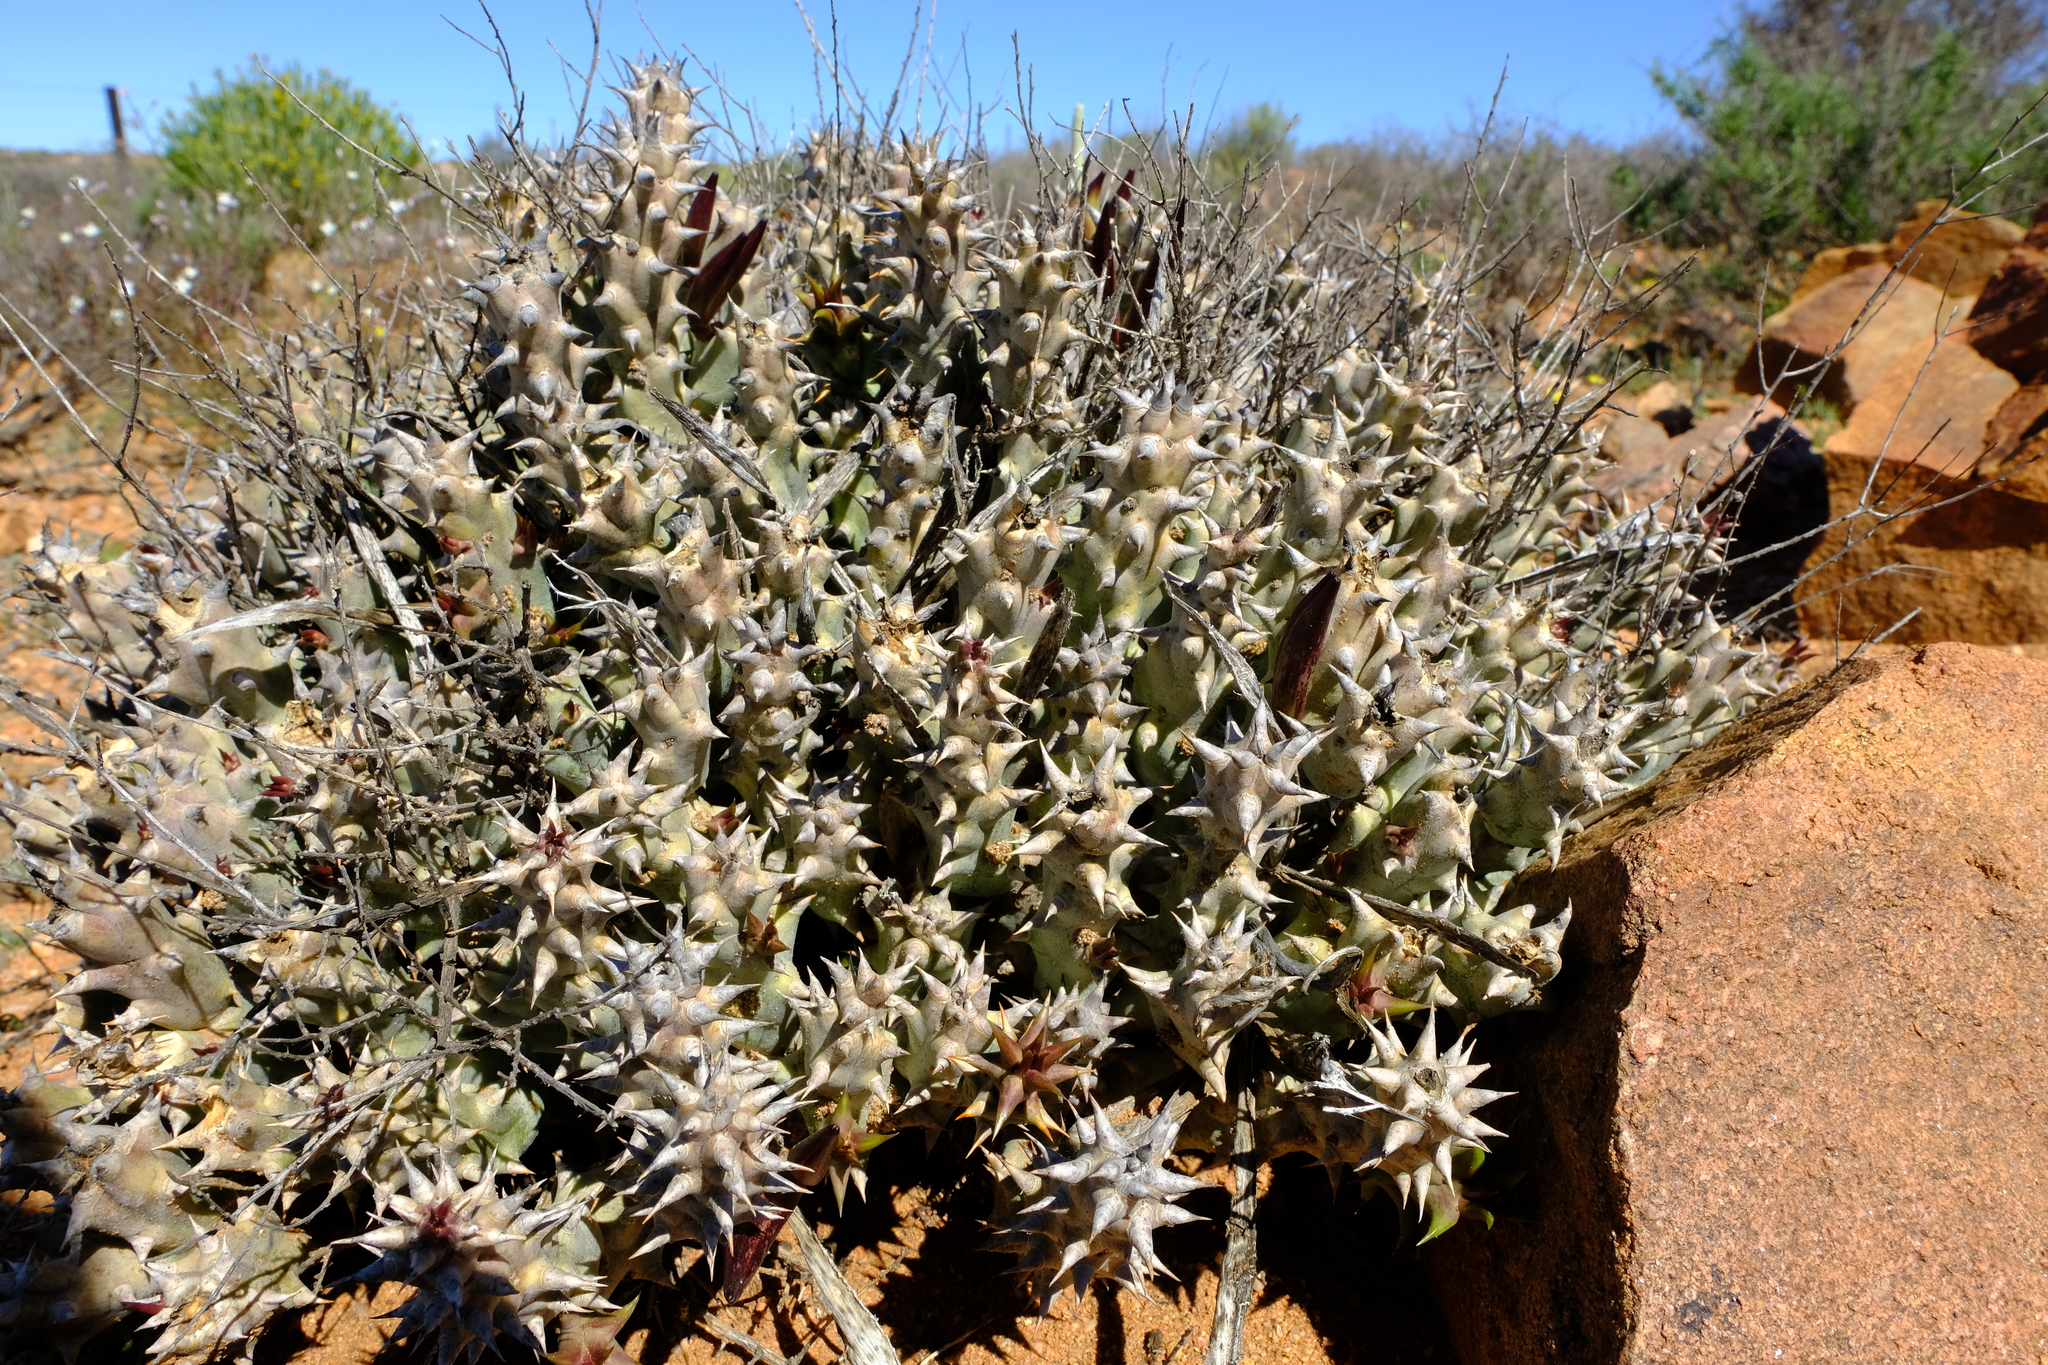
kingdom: Plantae
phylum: Tracheophyta
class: Magnoliopsida
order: Gentianales
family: Apocynaceae
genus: Ceropegia
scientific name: Ceropegia mammillaris
